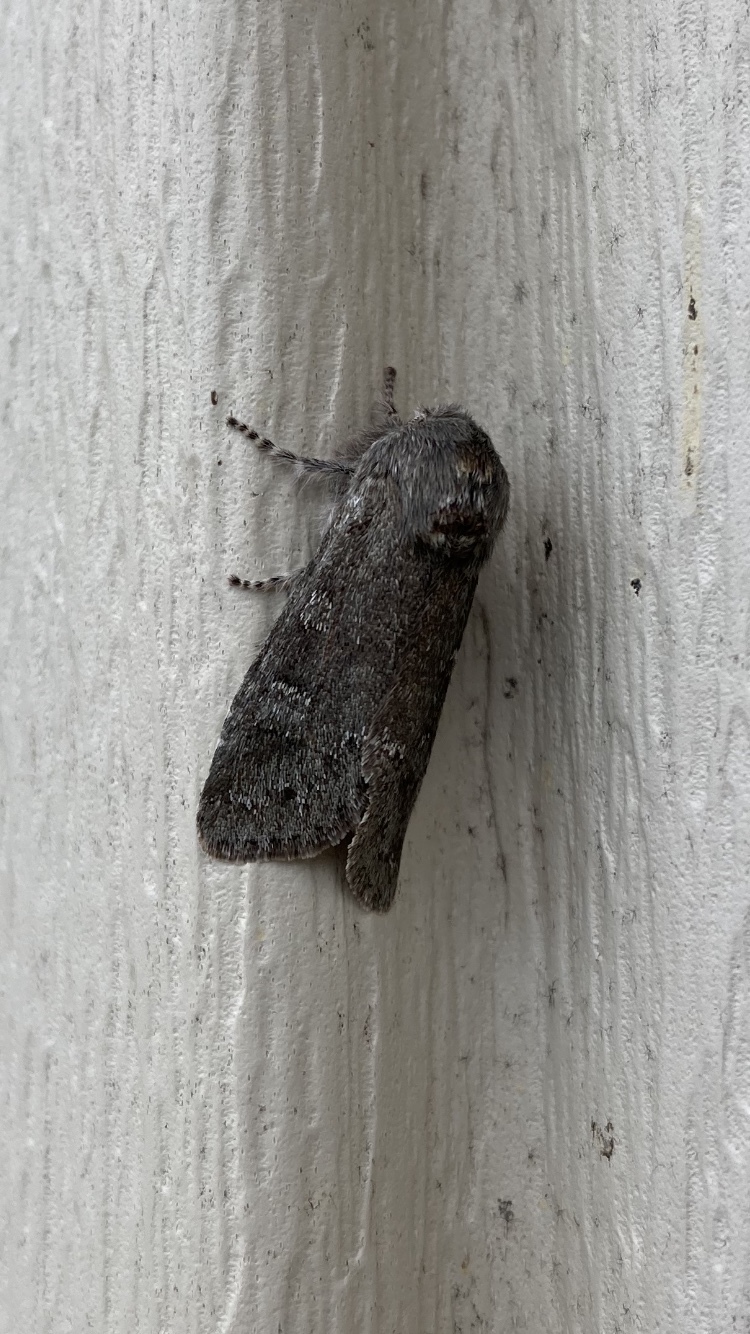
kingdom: Animalia
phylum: Arthropoda
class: Insecta
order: Lepidoptera
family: Noctuidae
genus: Psaphida
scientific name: Psaphida rolandi
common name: Roland's sallow
